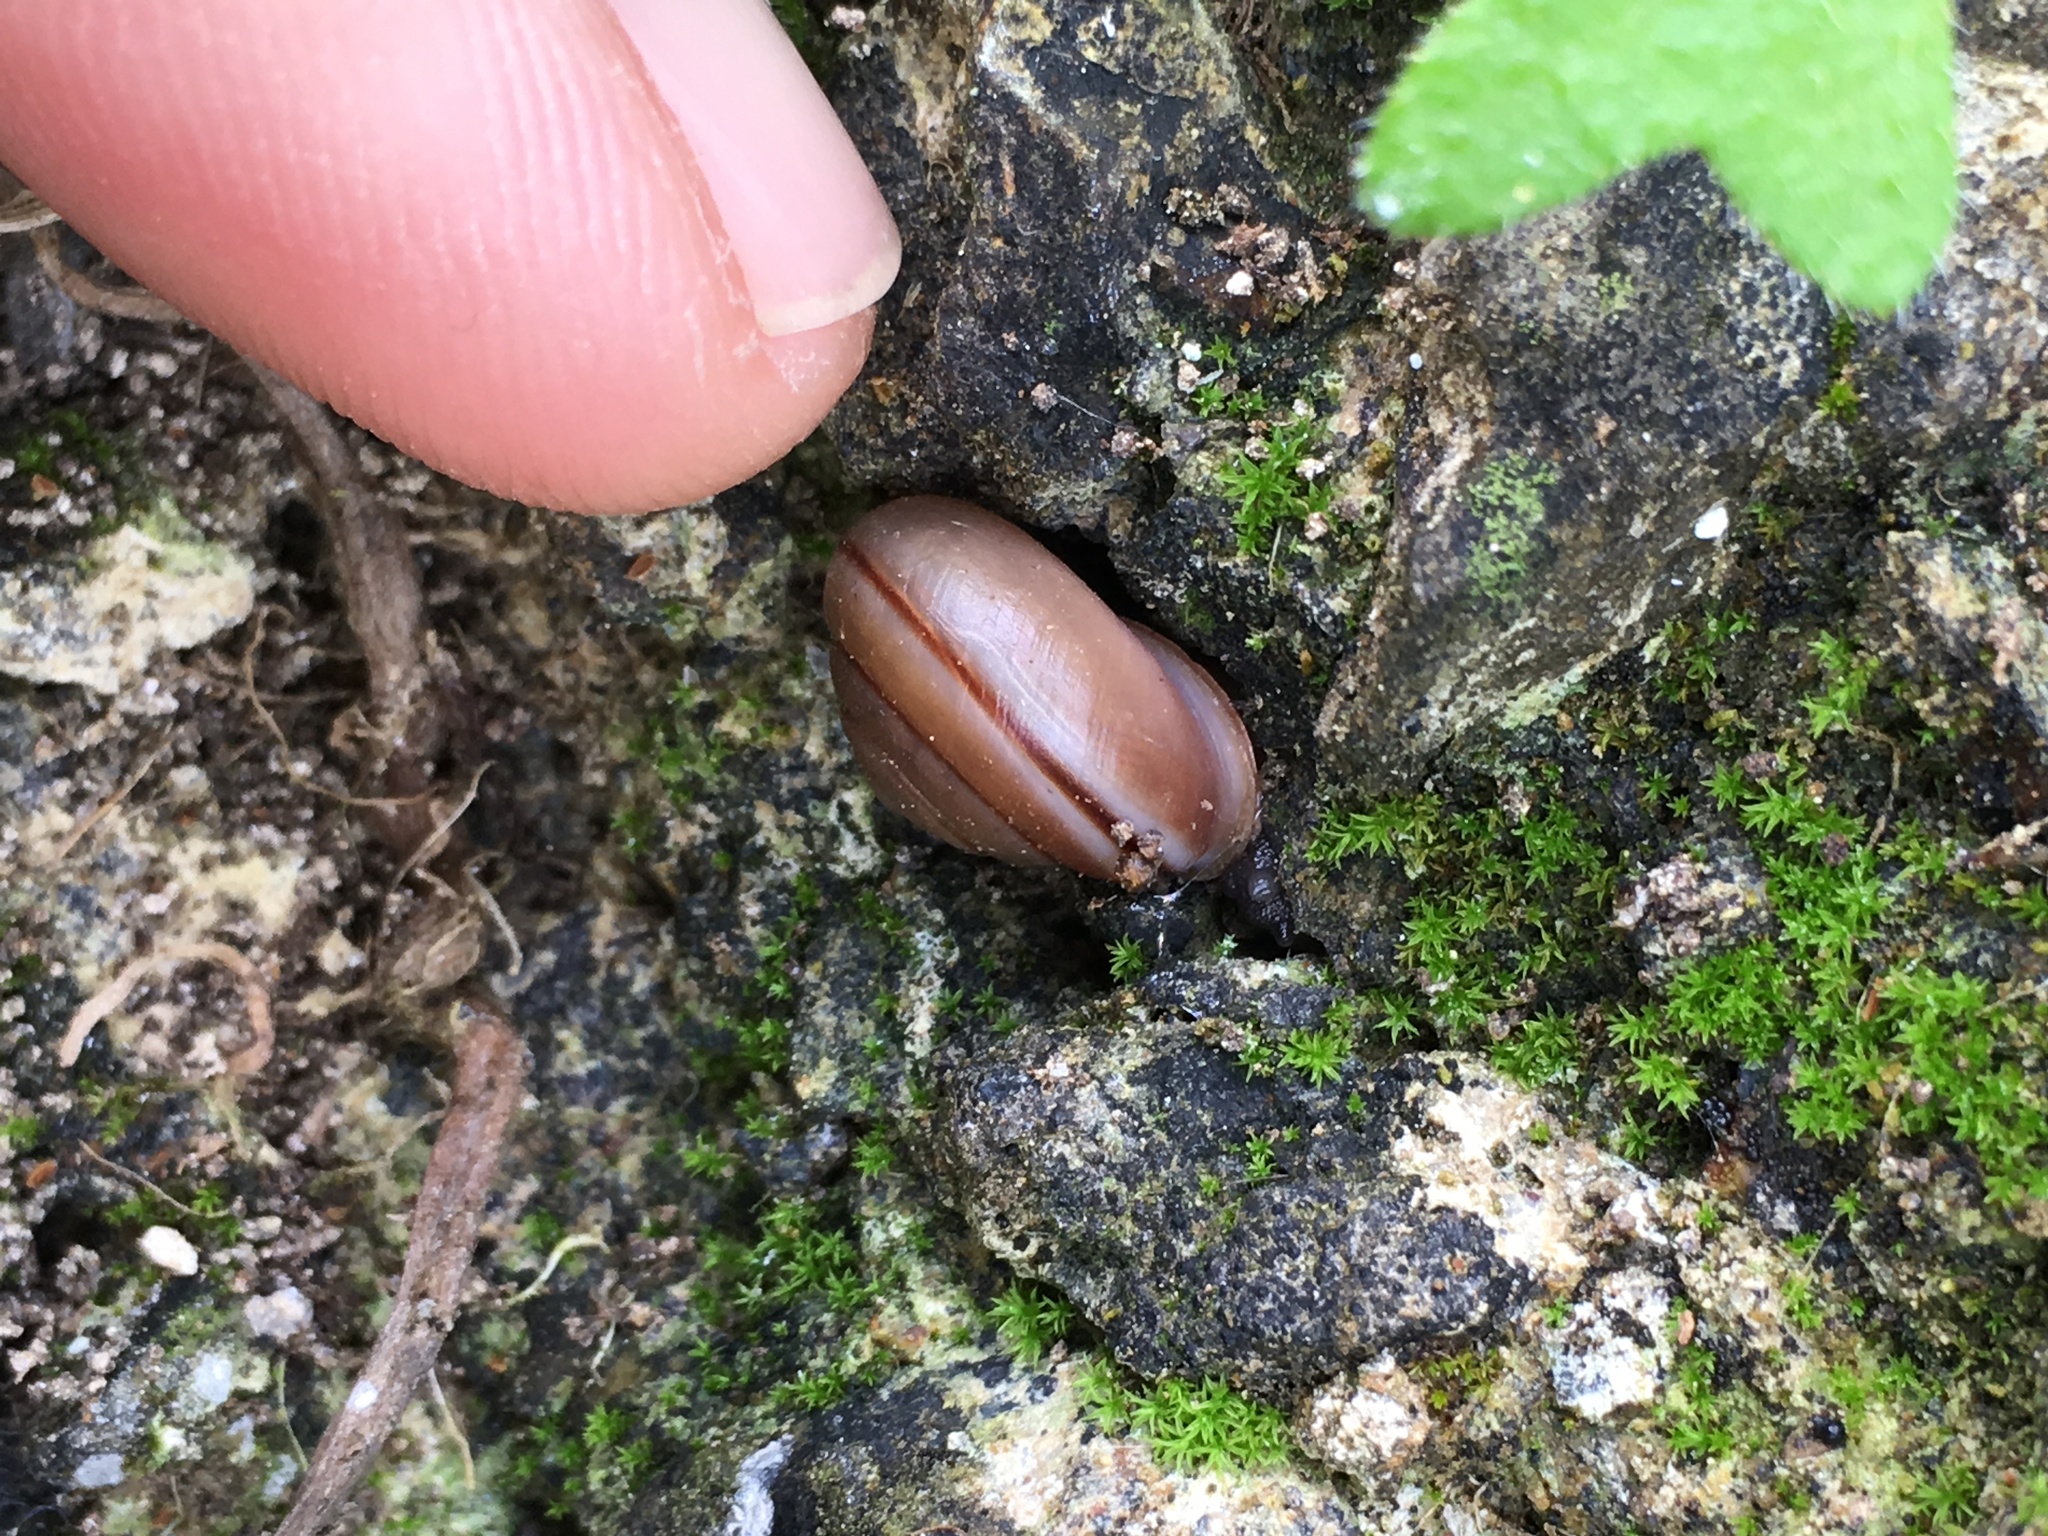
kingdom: Animalia
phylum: Mollusca
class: Gastropoda
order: Stylommatophora
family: Xanthonychidae
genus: Micrarionta
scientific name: Micrarionta facta
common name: Concentrated snail
